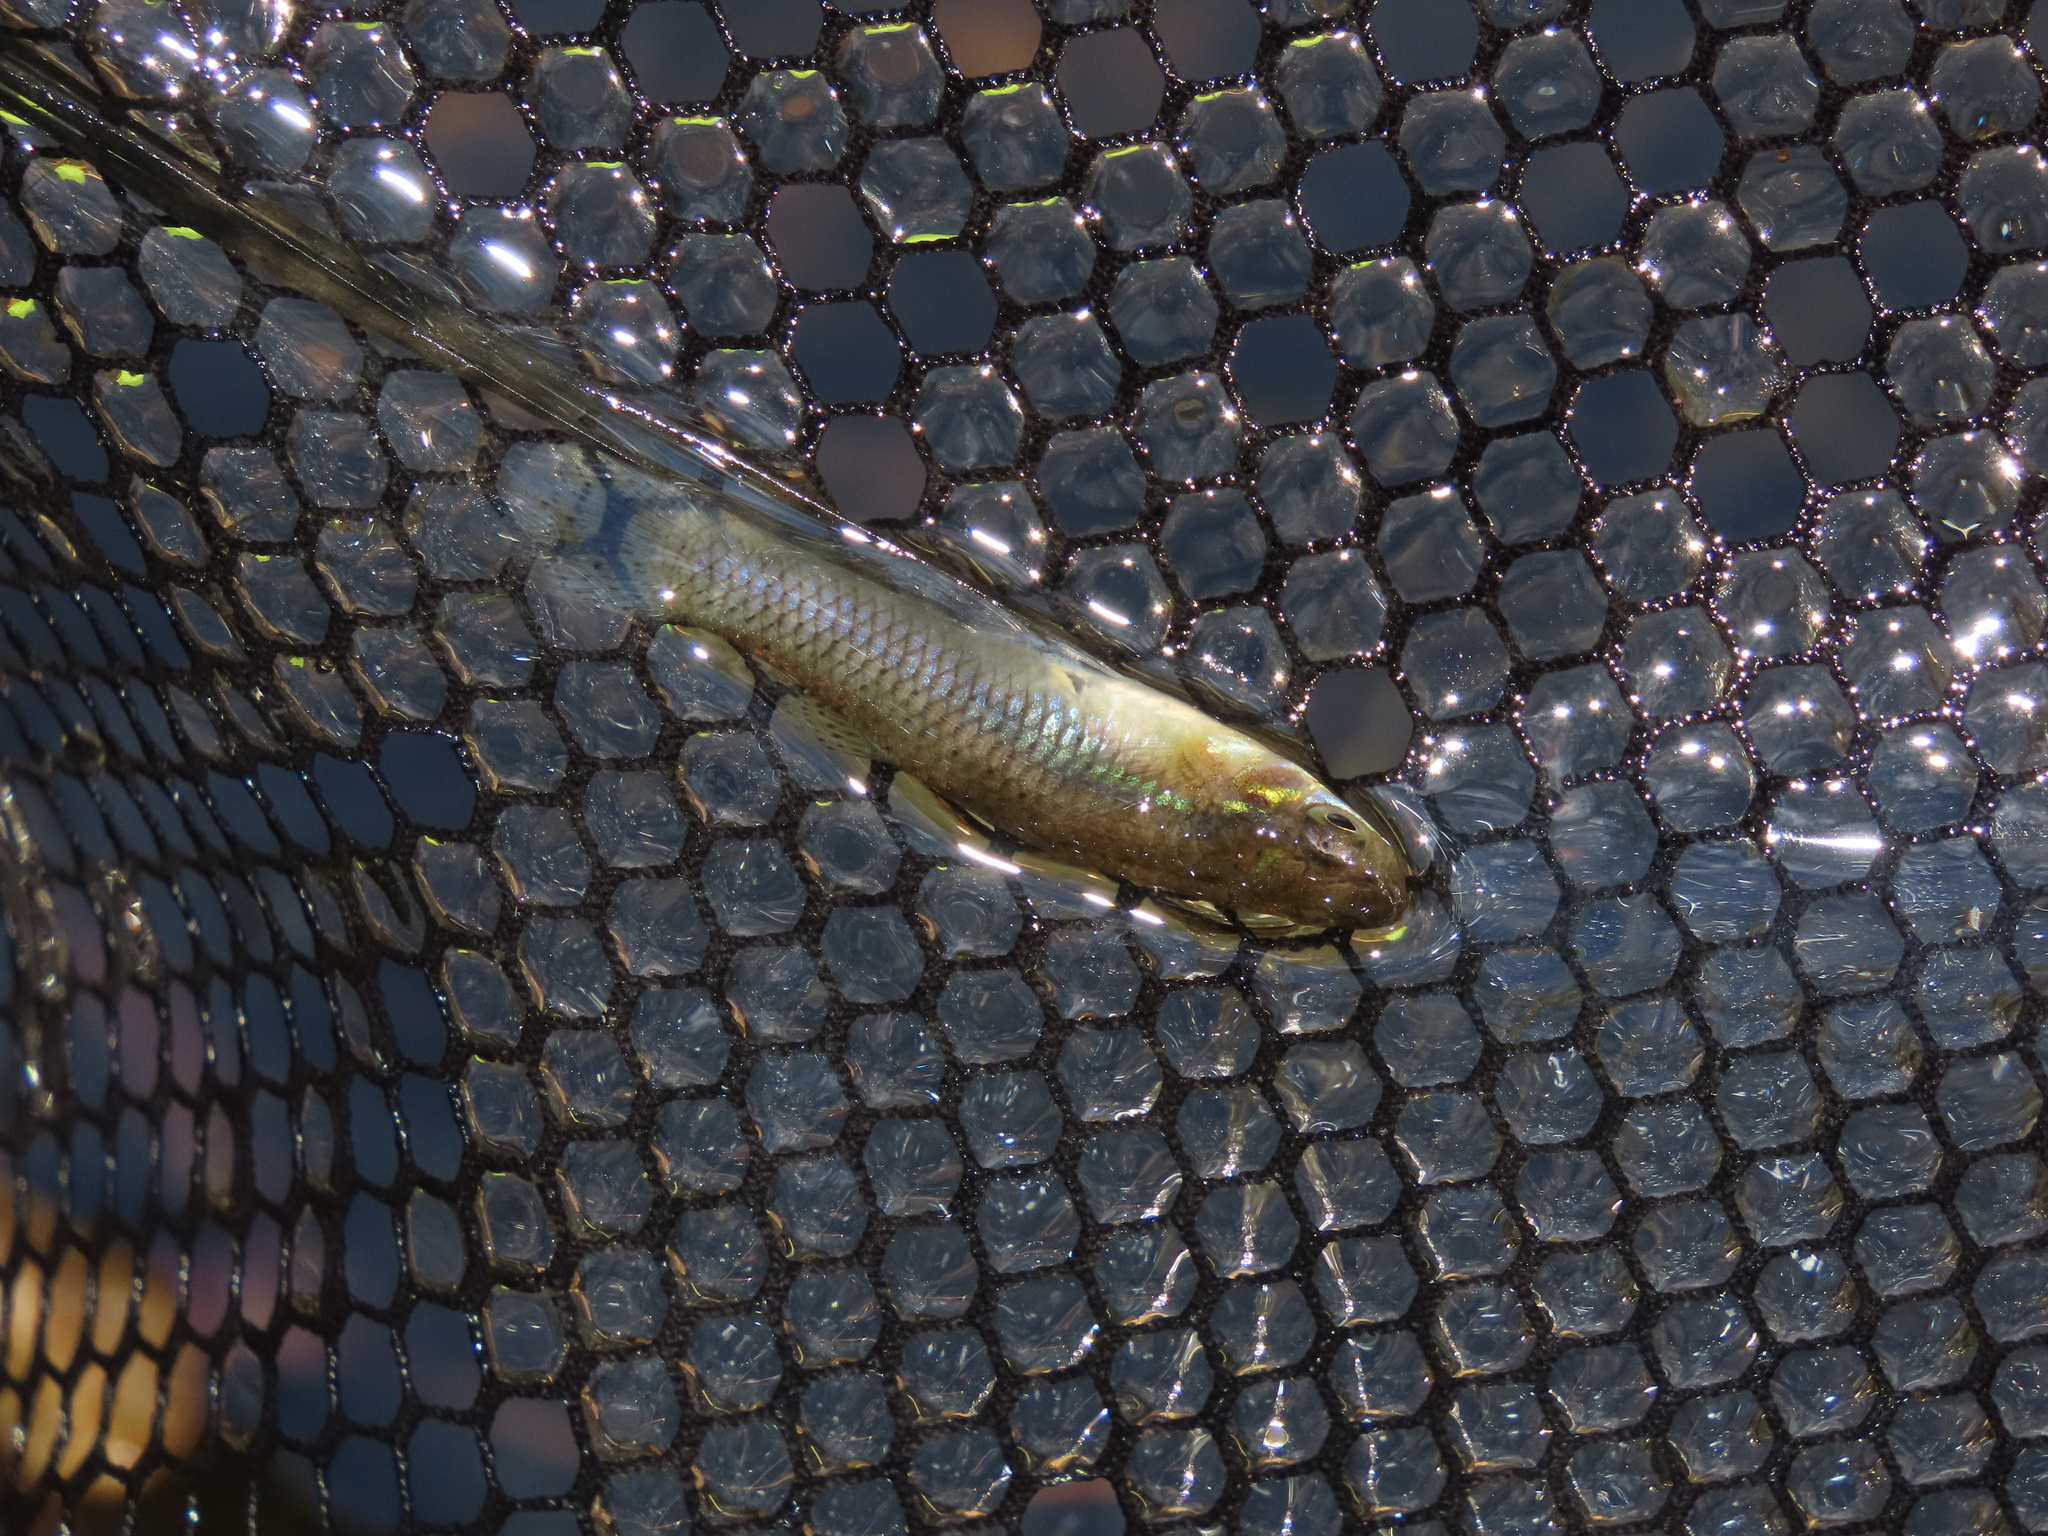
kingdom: Animalia
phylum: Chordata
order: Cyprinodontiformes
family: Poeciliidae
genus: Gambusia
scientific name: Gambusia holbrooki
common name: Eastern mosquitofish
